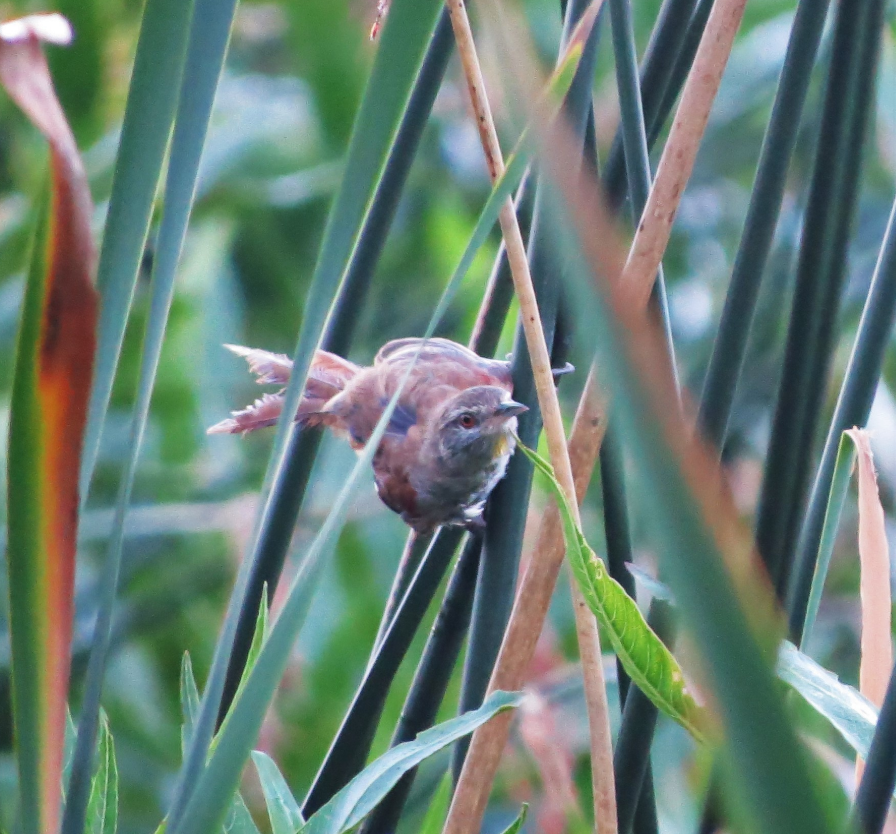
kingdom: Animalia
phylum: Chordata
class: Aves
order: Passeriformes
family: Furnariidae
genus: Cranioleuca
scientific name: Cranioleuca sulphurifera
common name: Sulphur-bearded spinetail
